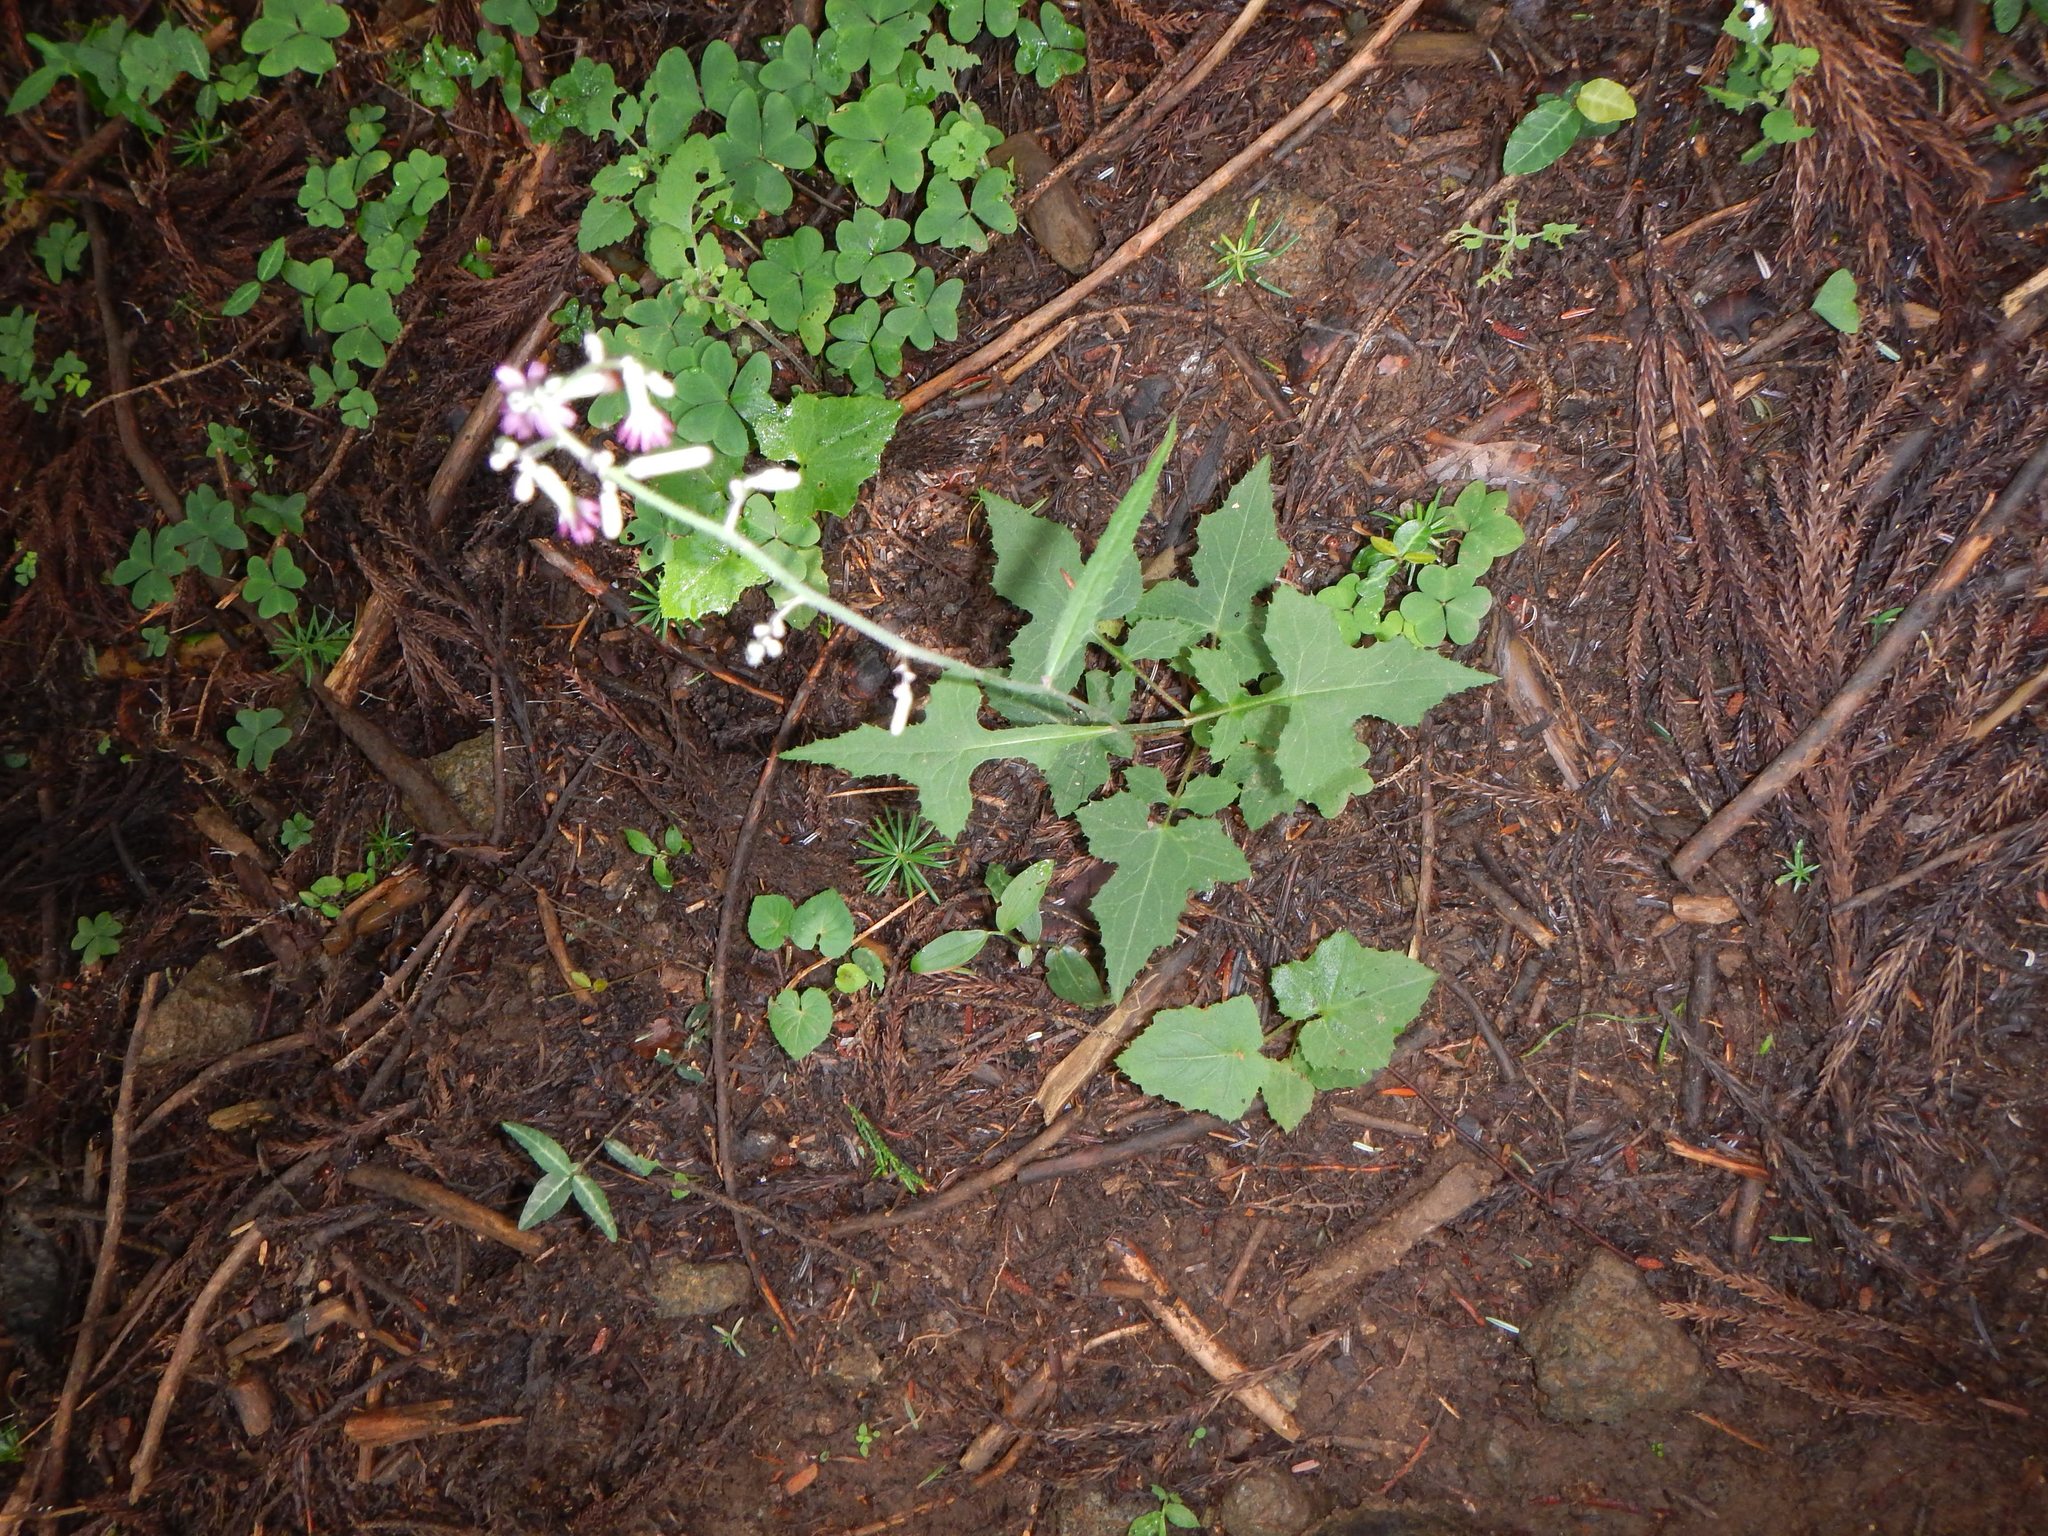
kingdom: Plantae
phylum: Tracheophyta
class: Magnoliopsida
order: Asterales
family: Asteraceae
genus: Paraprenanthes
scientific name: Paraprenanthes sororia
